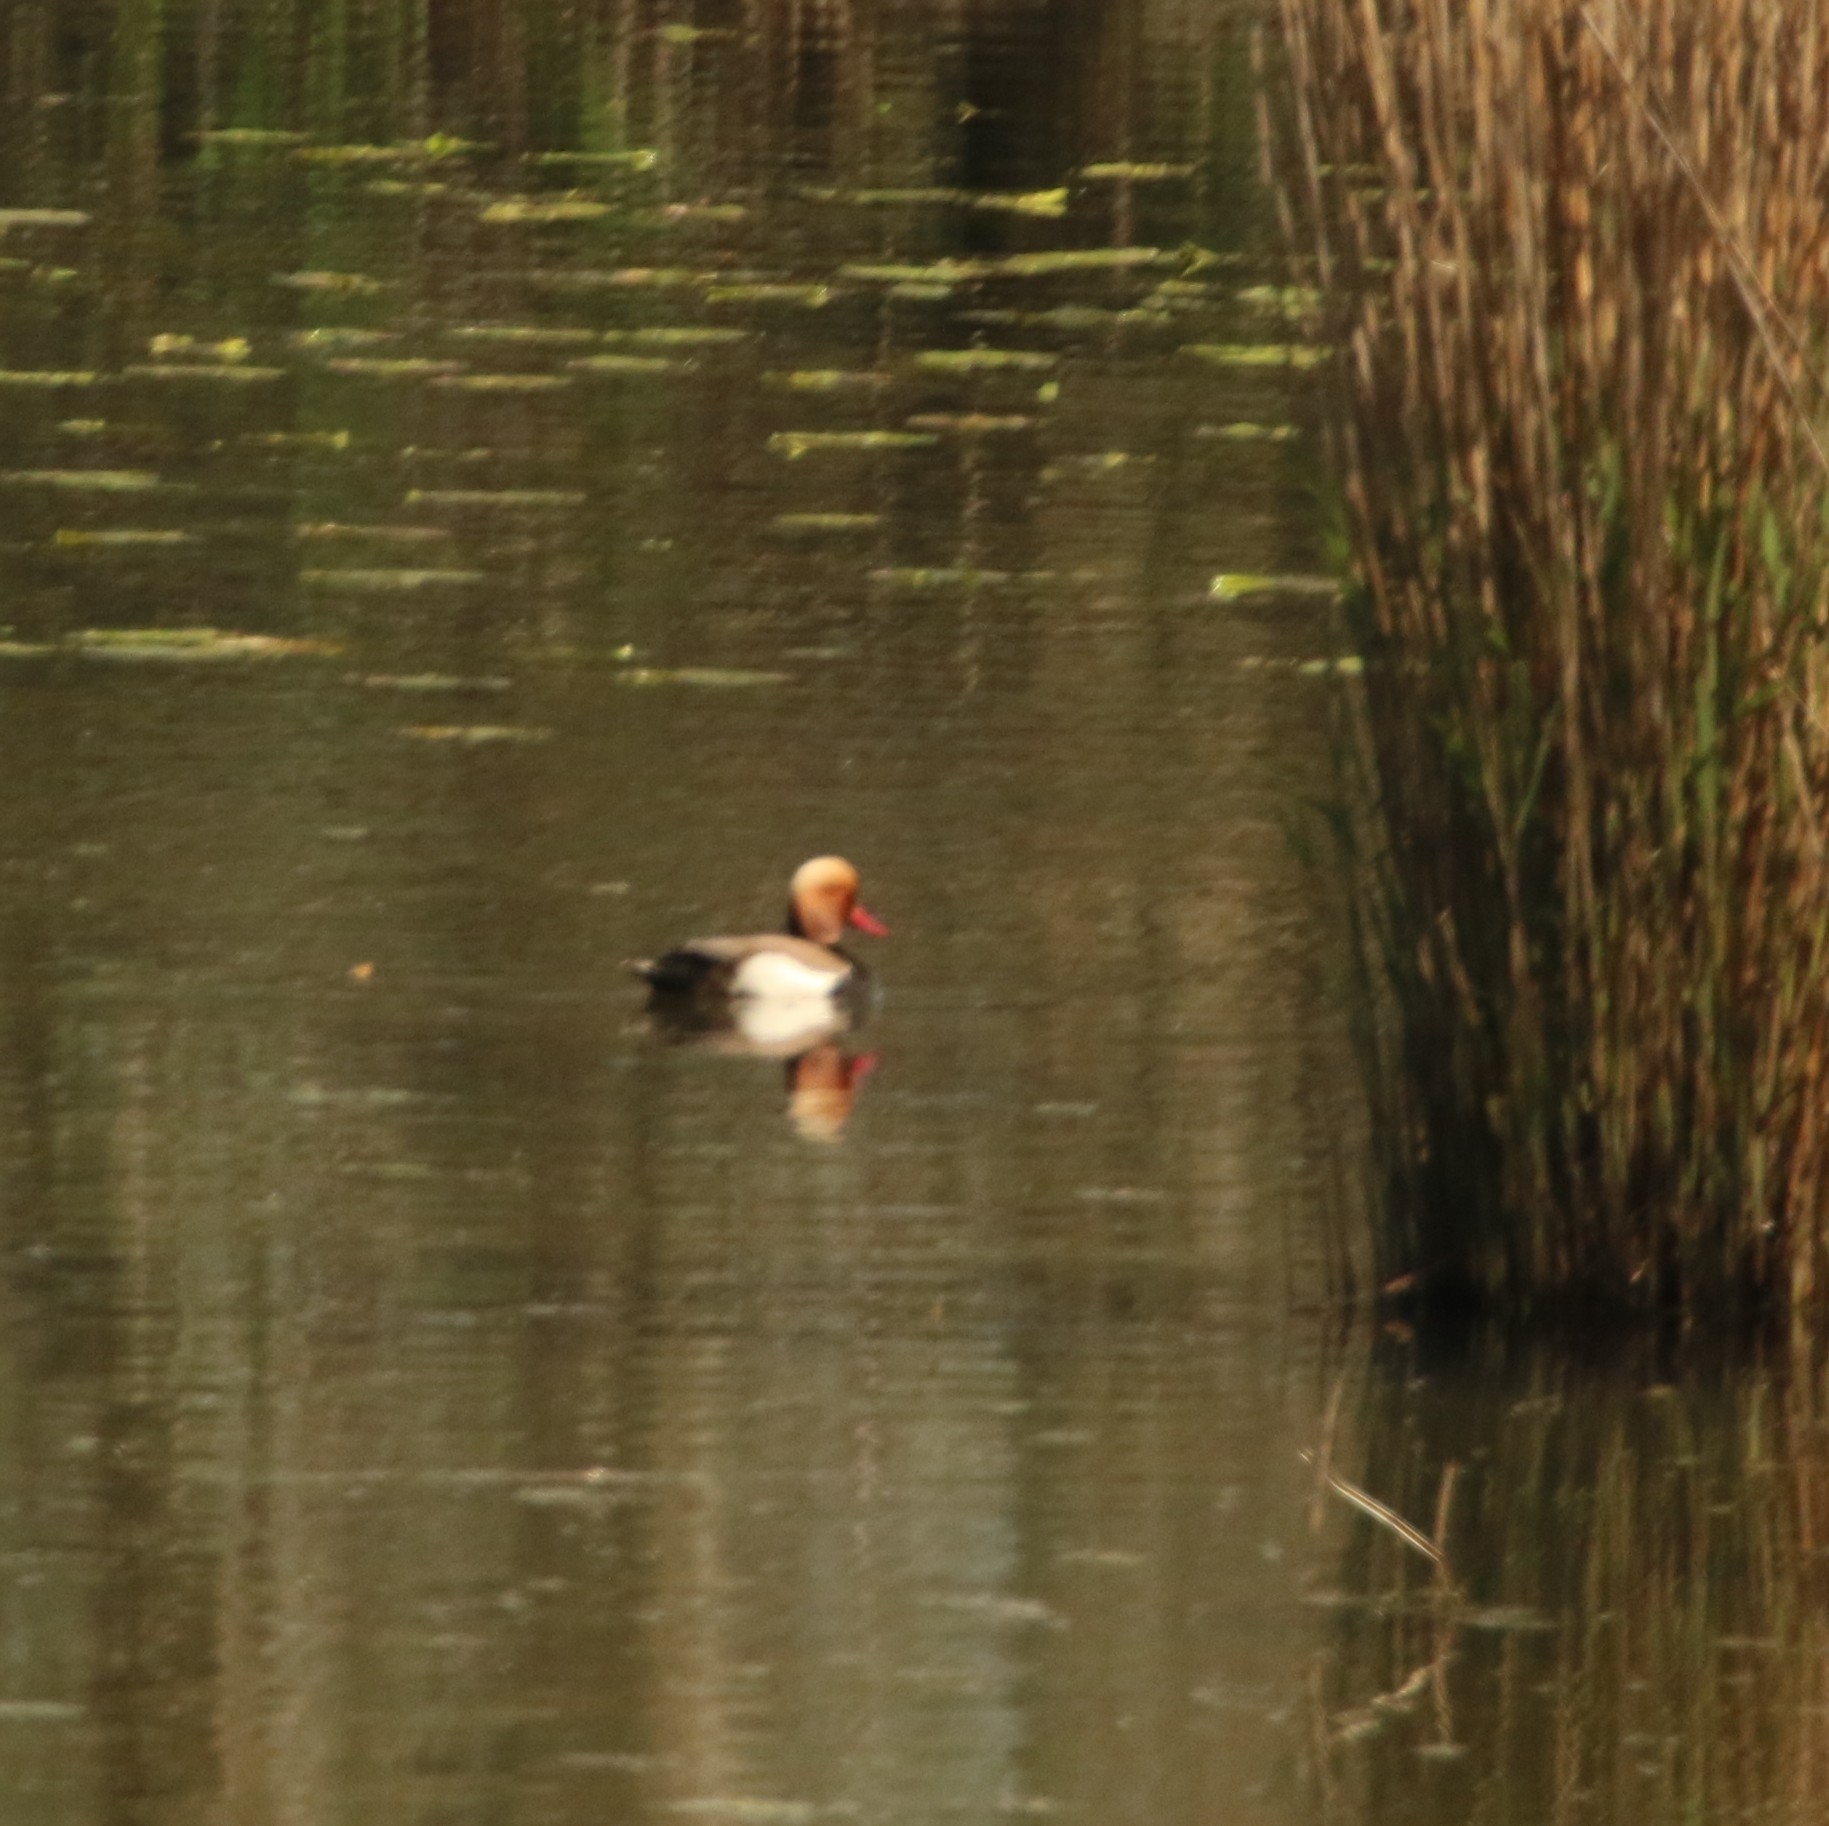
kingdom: Animalia
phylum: Chordata
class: Aves
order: Anseriformes
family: Anatidae
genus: Netta
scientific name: Netta rufina
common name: Red-crested pochard
